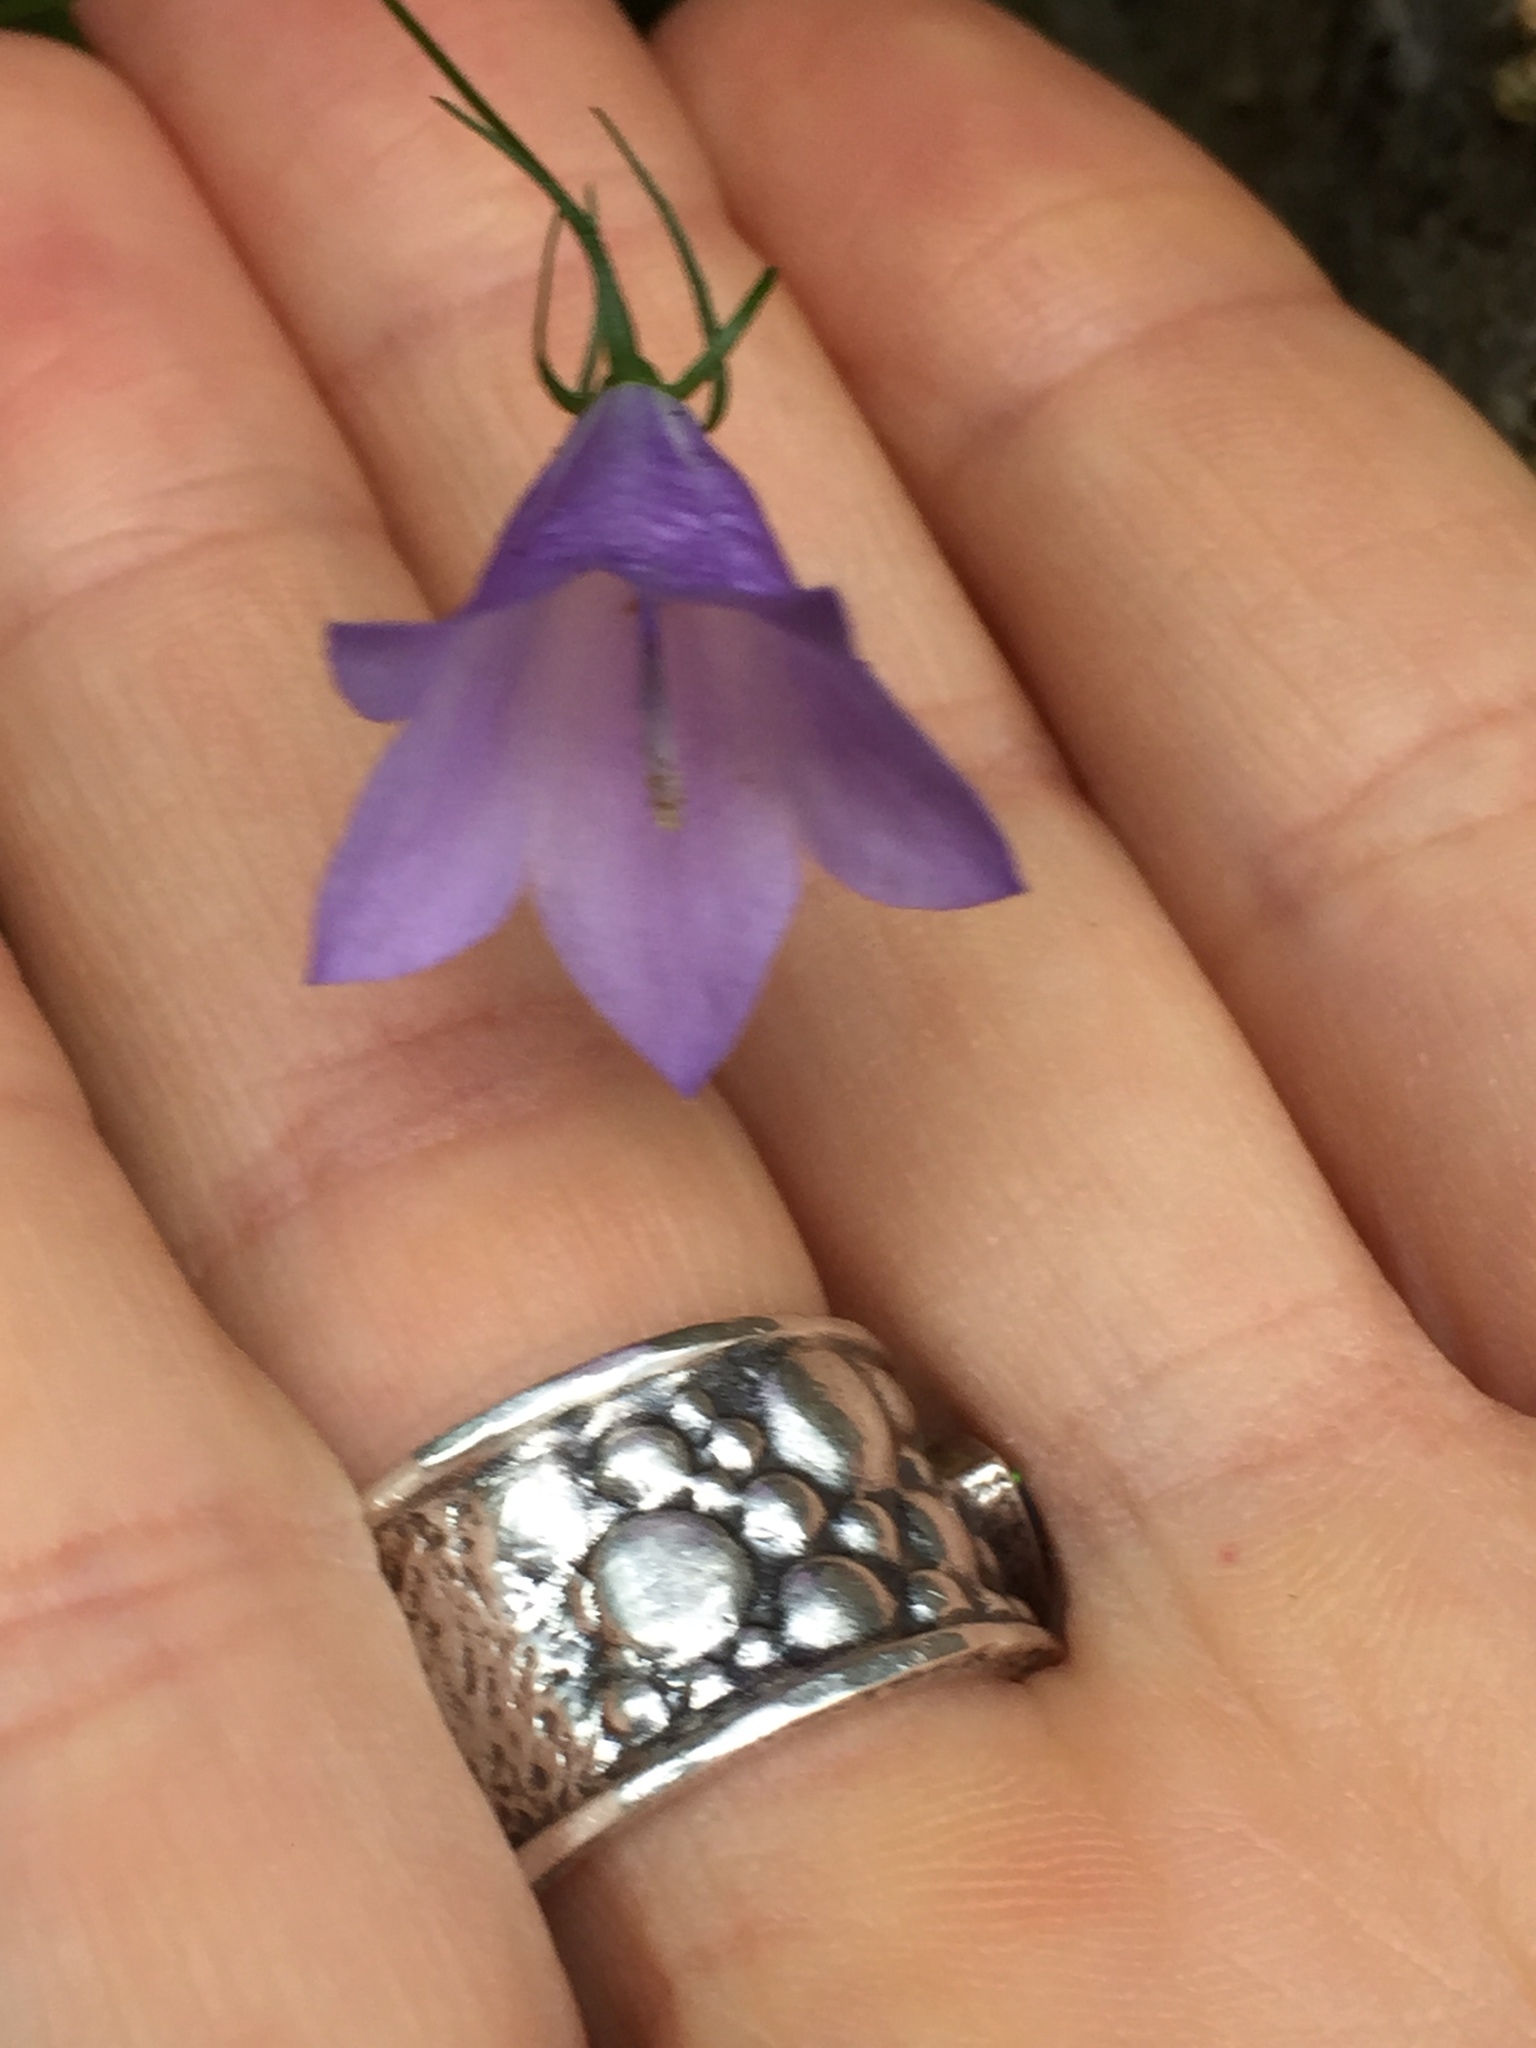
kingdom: Plantae
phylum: Tracheophyta
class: Magnoliopsida
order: Asterales
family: Campanulaceae
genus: Campanula
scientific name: Campanula petiolata
